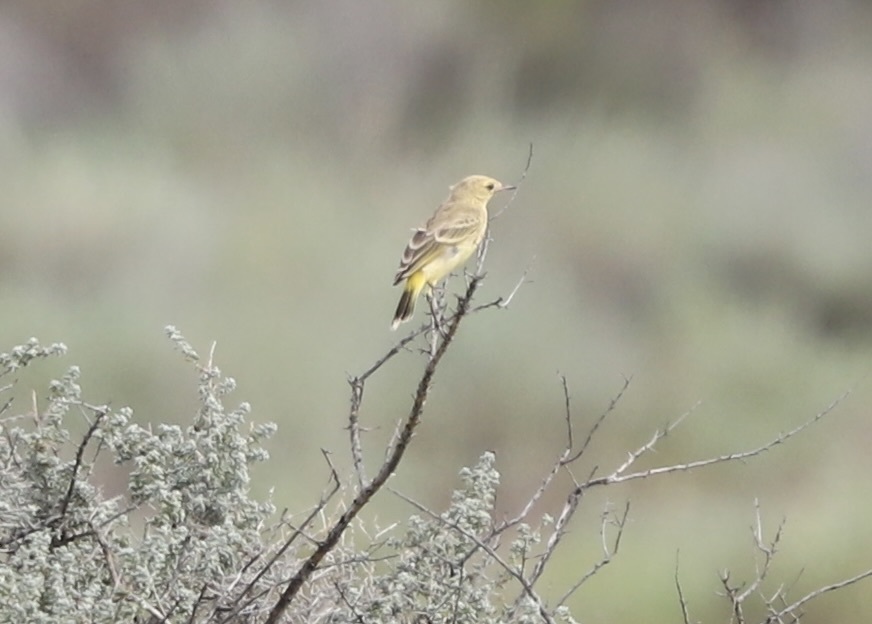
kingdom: Animalia
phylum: Chordata
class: Aves
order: Passeriformes
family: Meliphagidae
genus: Epthianura
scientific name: Epthianura aurifrons
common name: Orange chat
